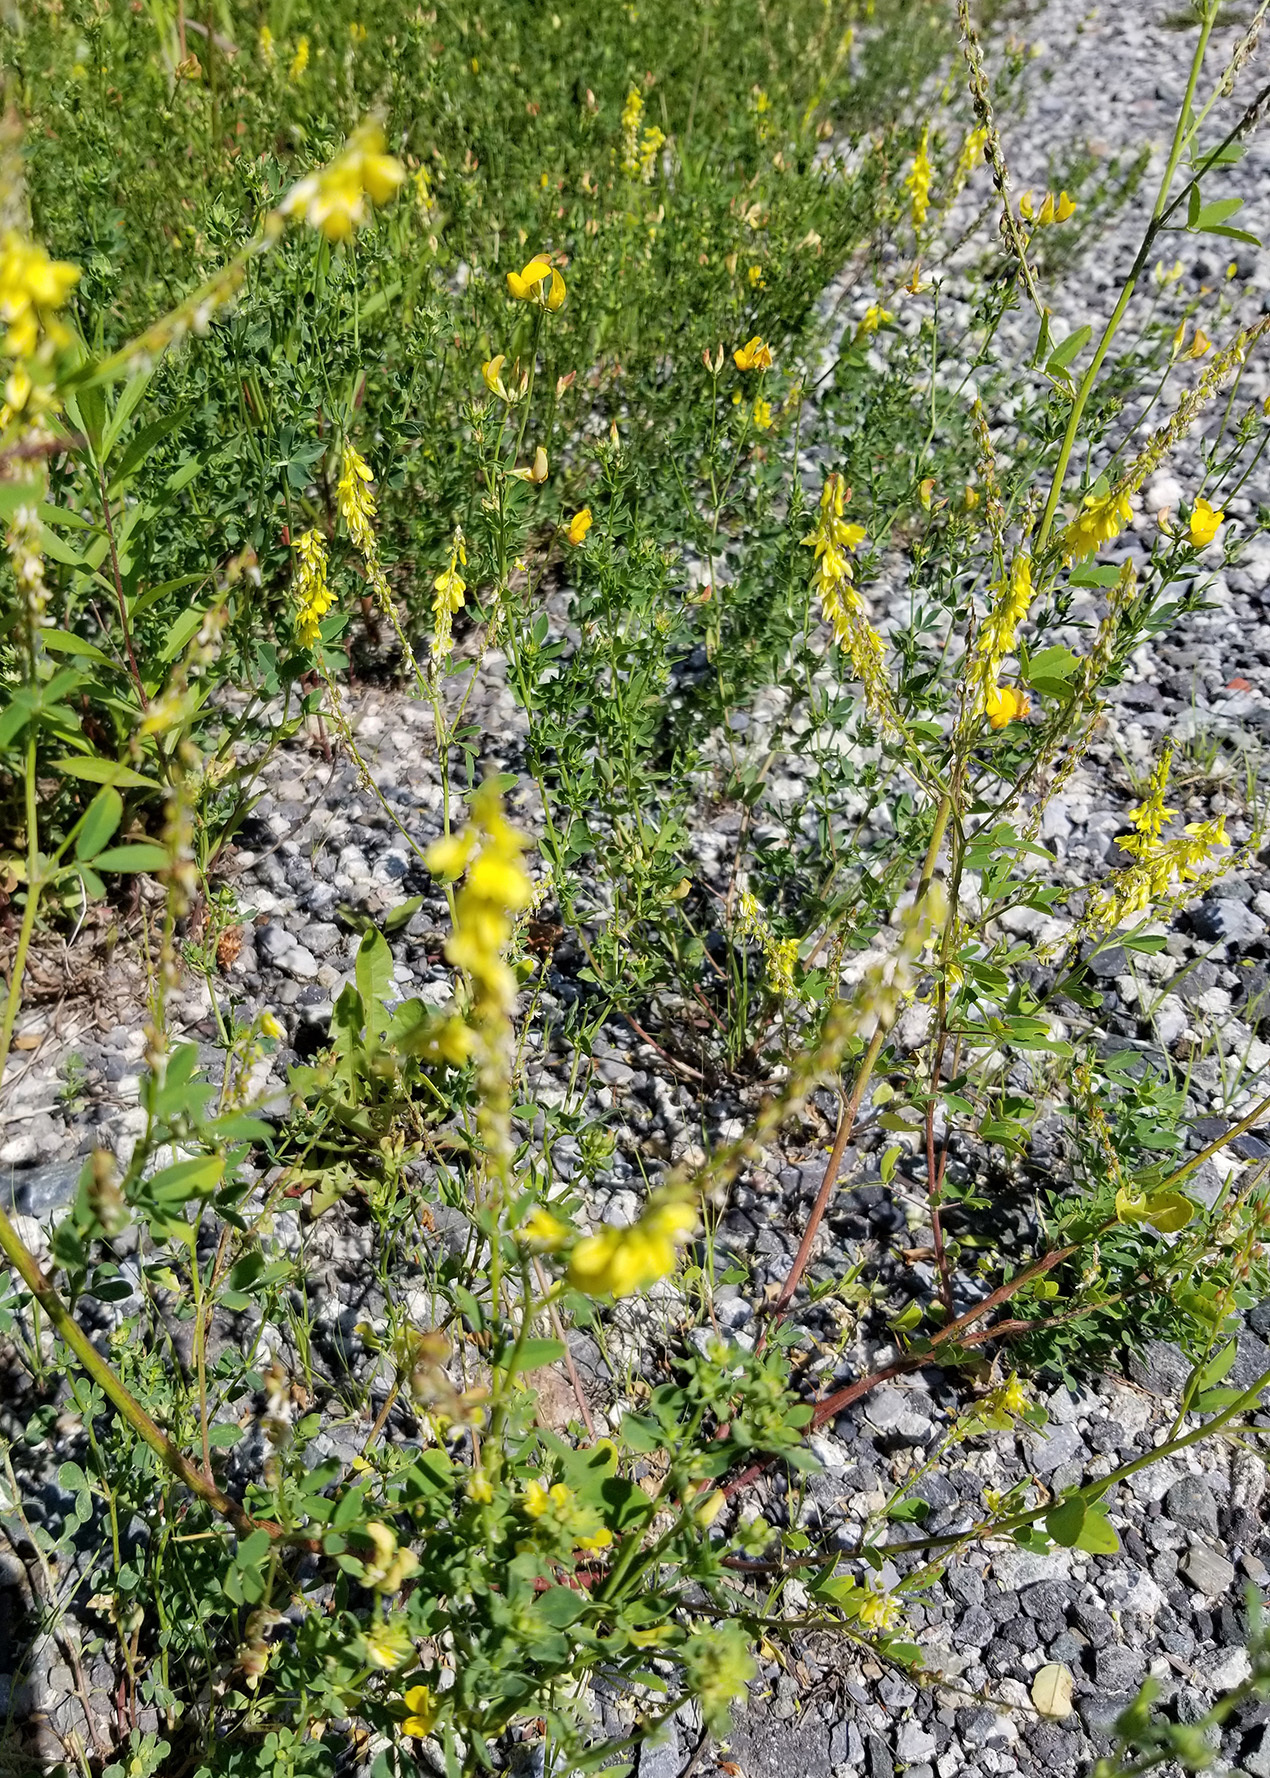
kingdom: Plantae
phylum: Tracheophyta
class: Magnoliopsida
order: Fabales
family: Fabaceae
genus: Melilotus
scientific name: Melilotus officinalis
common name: Sweetclover
